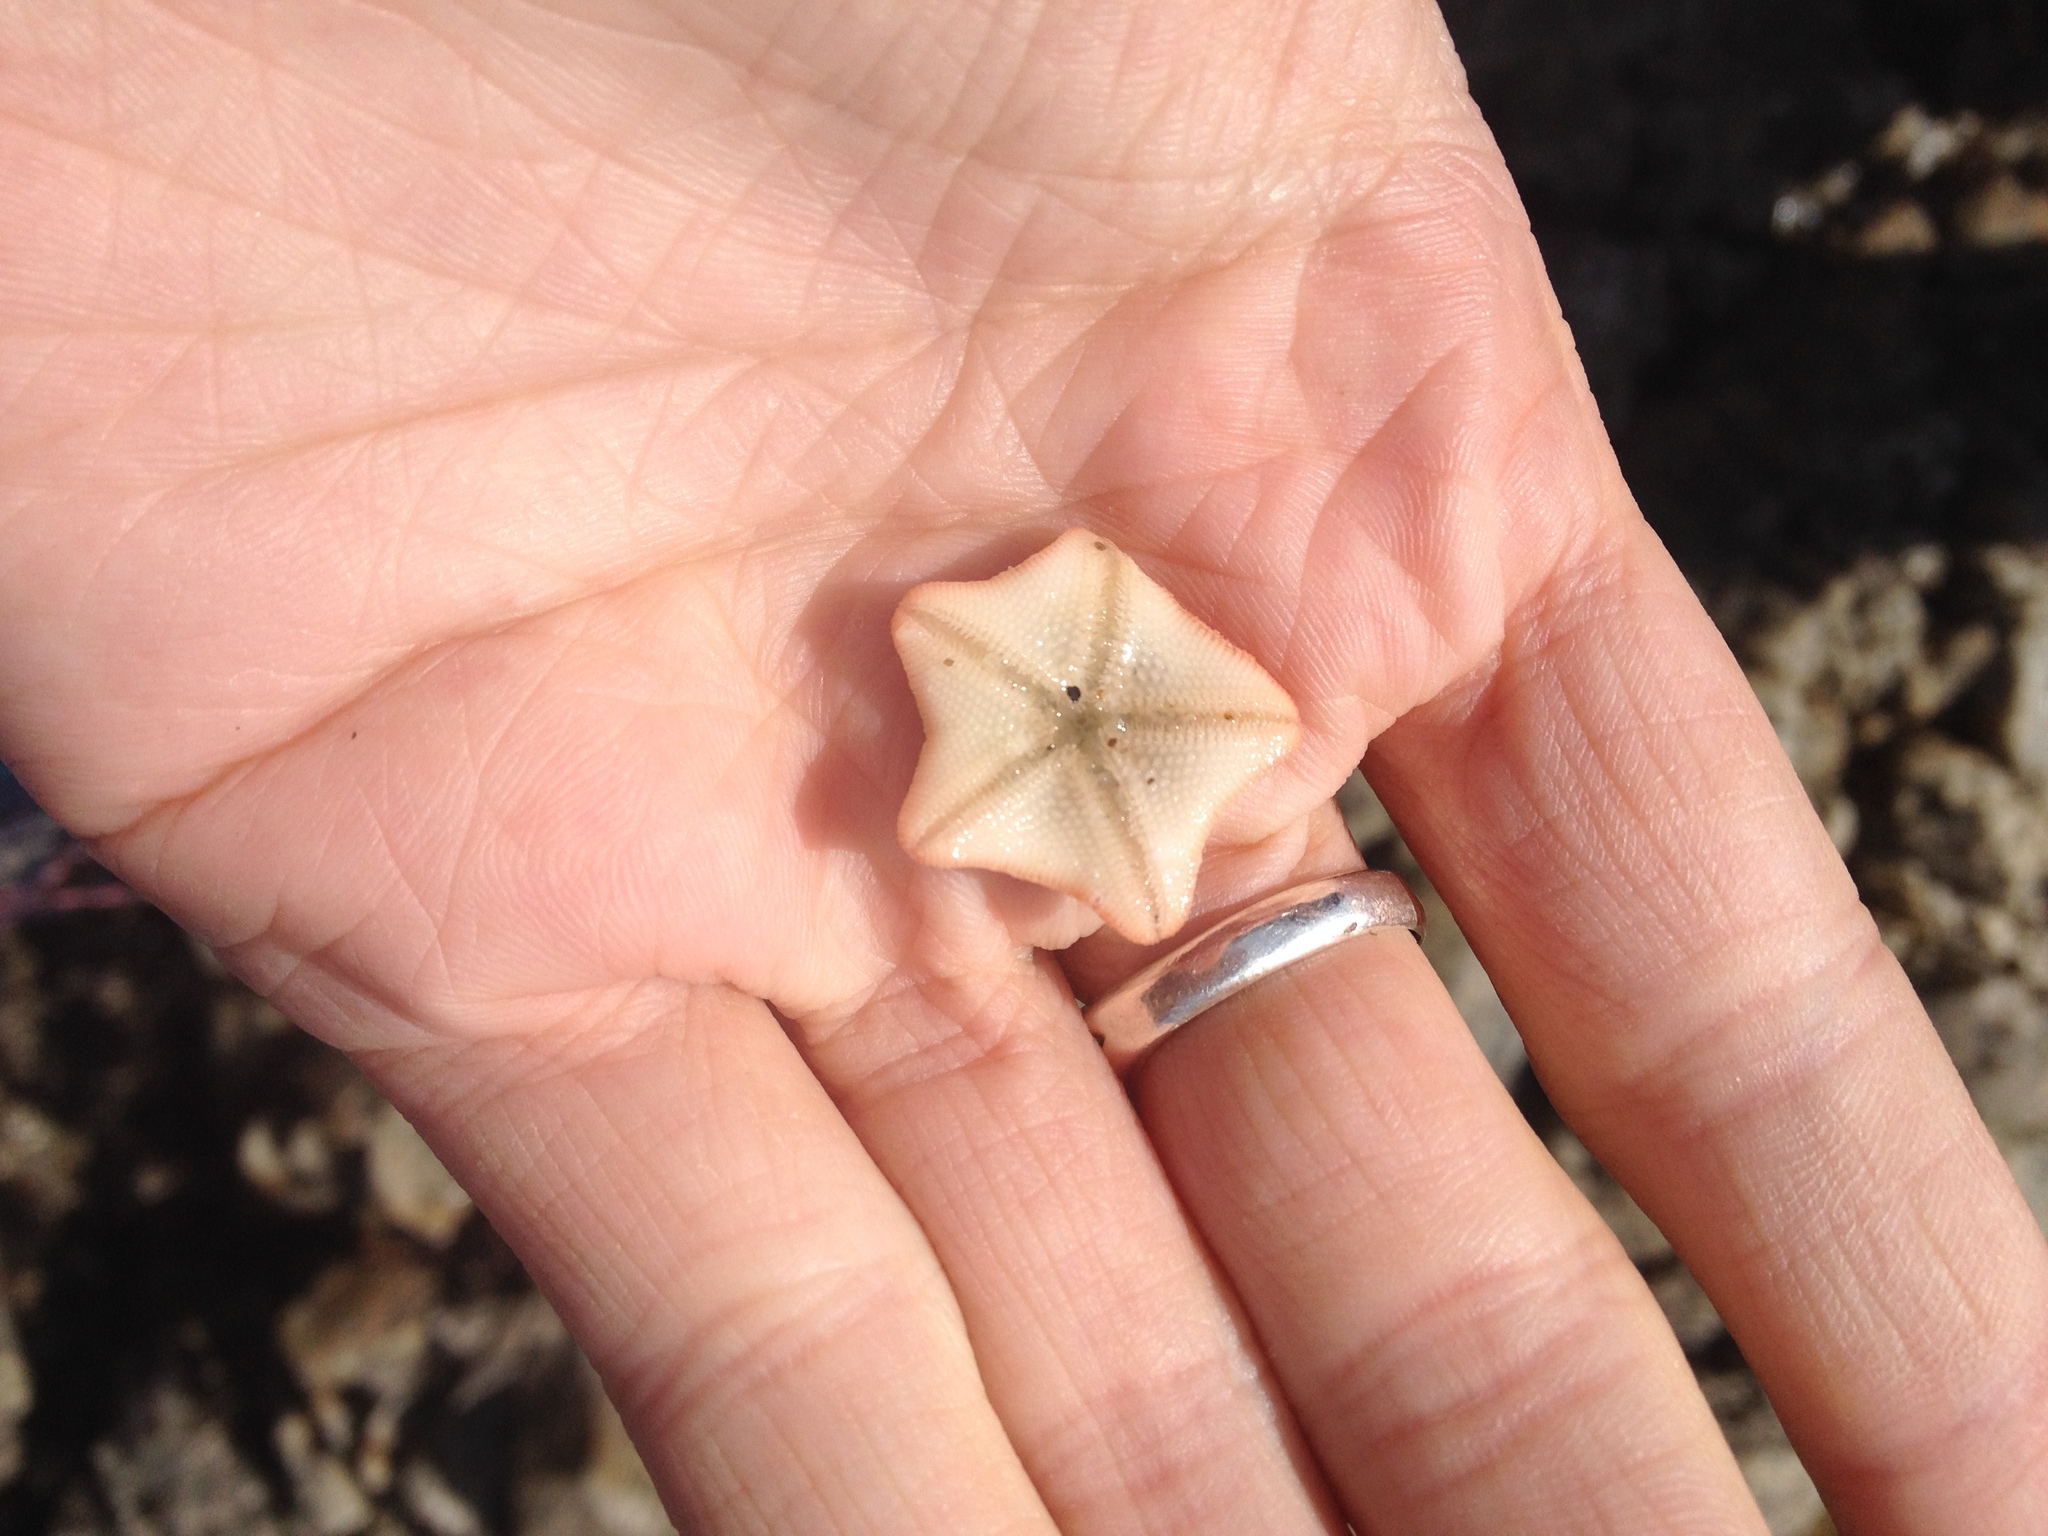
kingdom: Animalia
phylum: Echinodermata
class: Asteroidea
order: Valvatida
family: Asterinidae
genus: Patiria
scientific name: Patiria miniata
